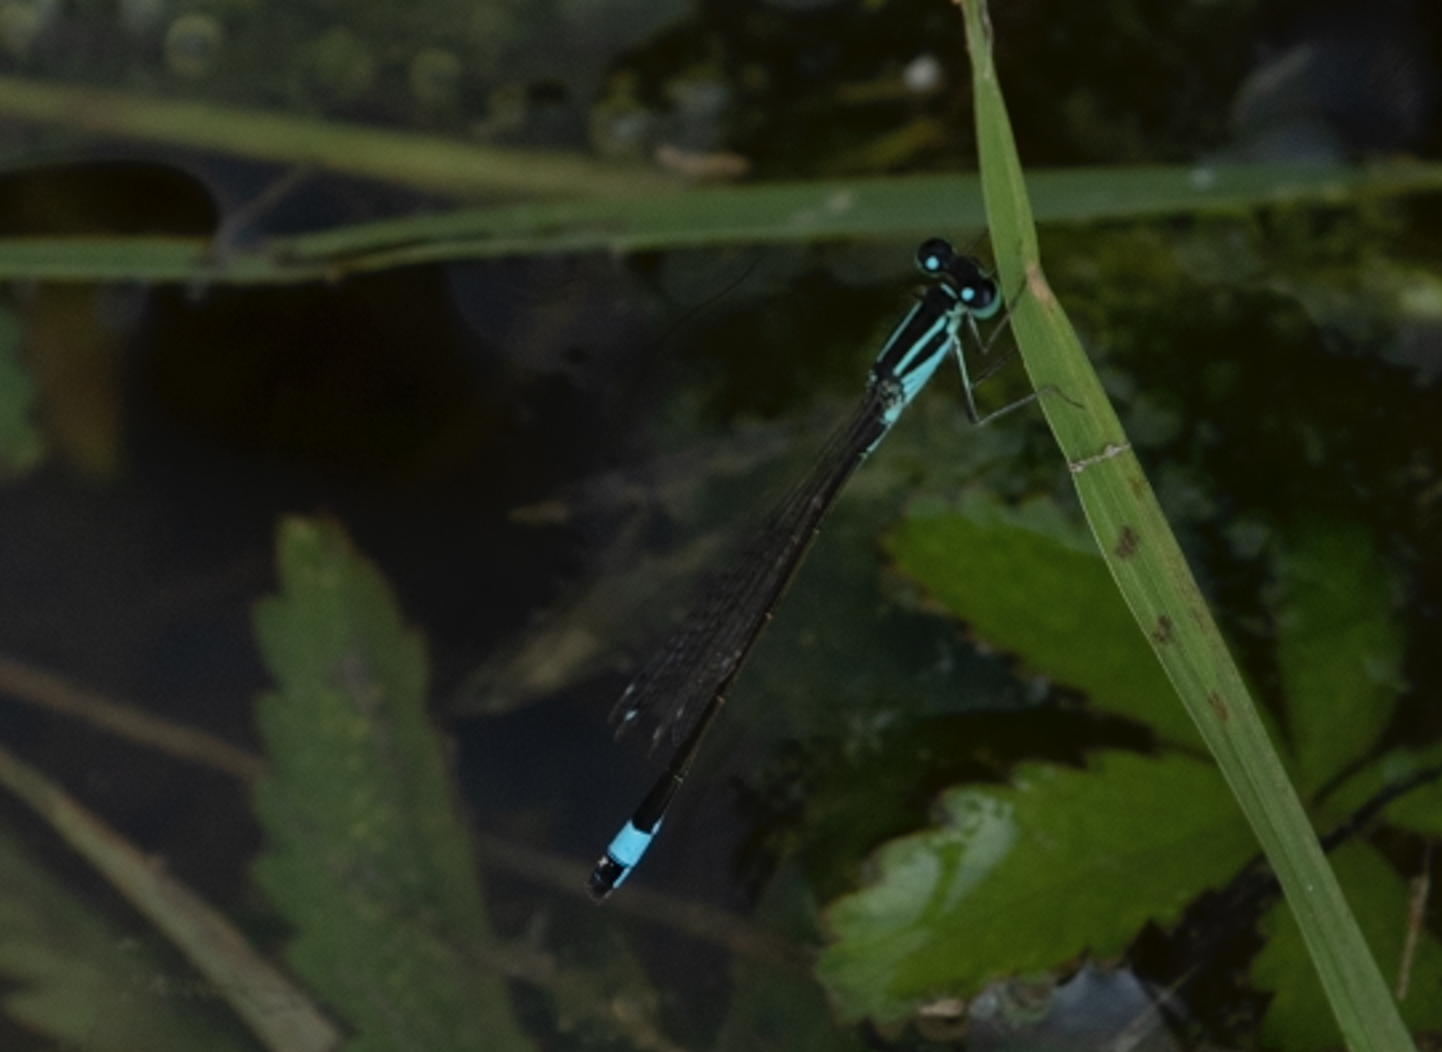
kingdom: Animalia
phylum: Arthropoda
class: Insecta
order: Odonata
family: Coenagrionidae
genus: Ischnura
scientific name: Ischnura elegans
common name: Blue-tailed damselfly
